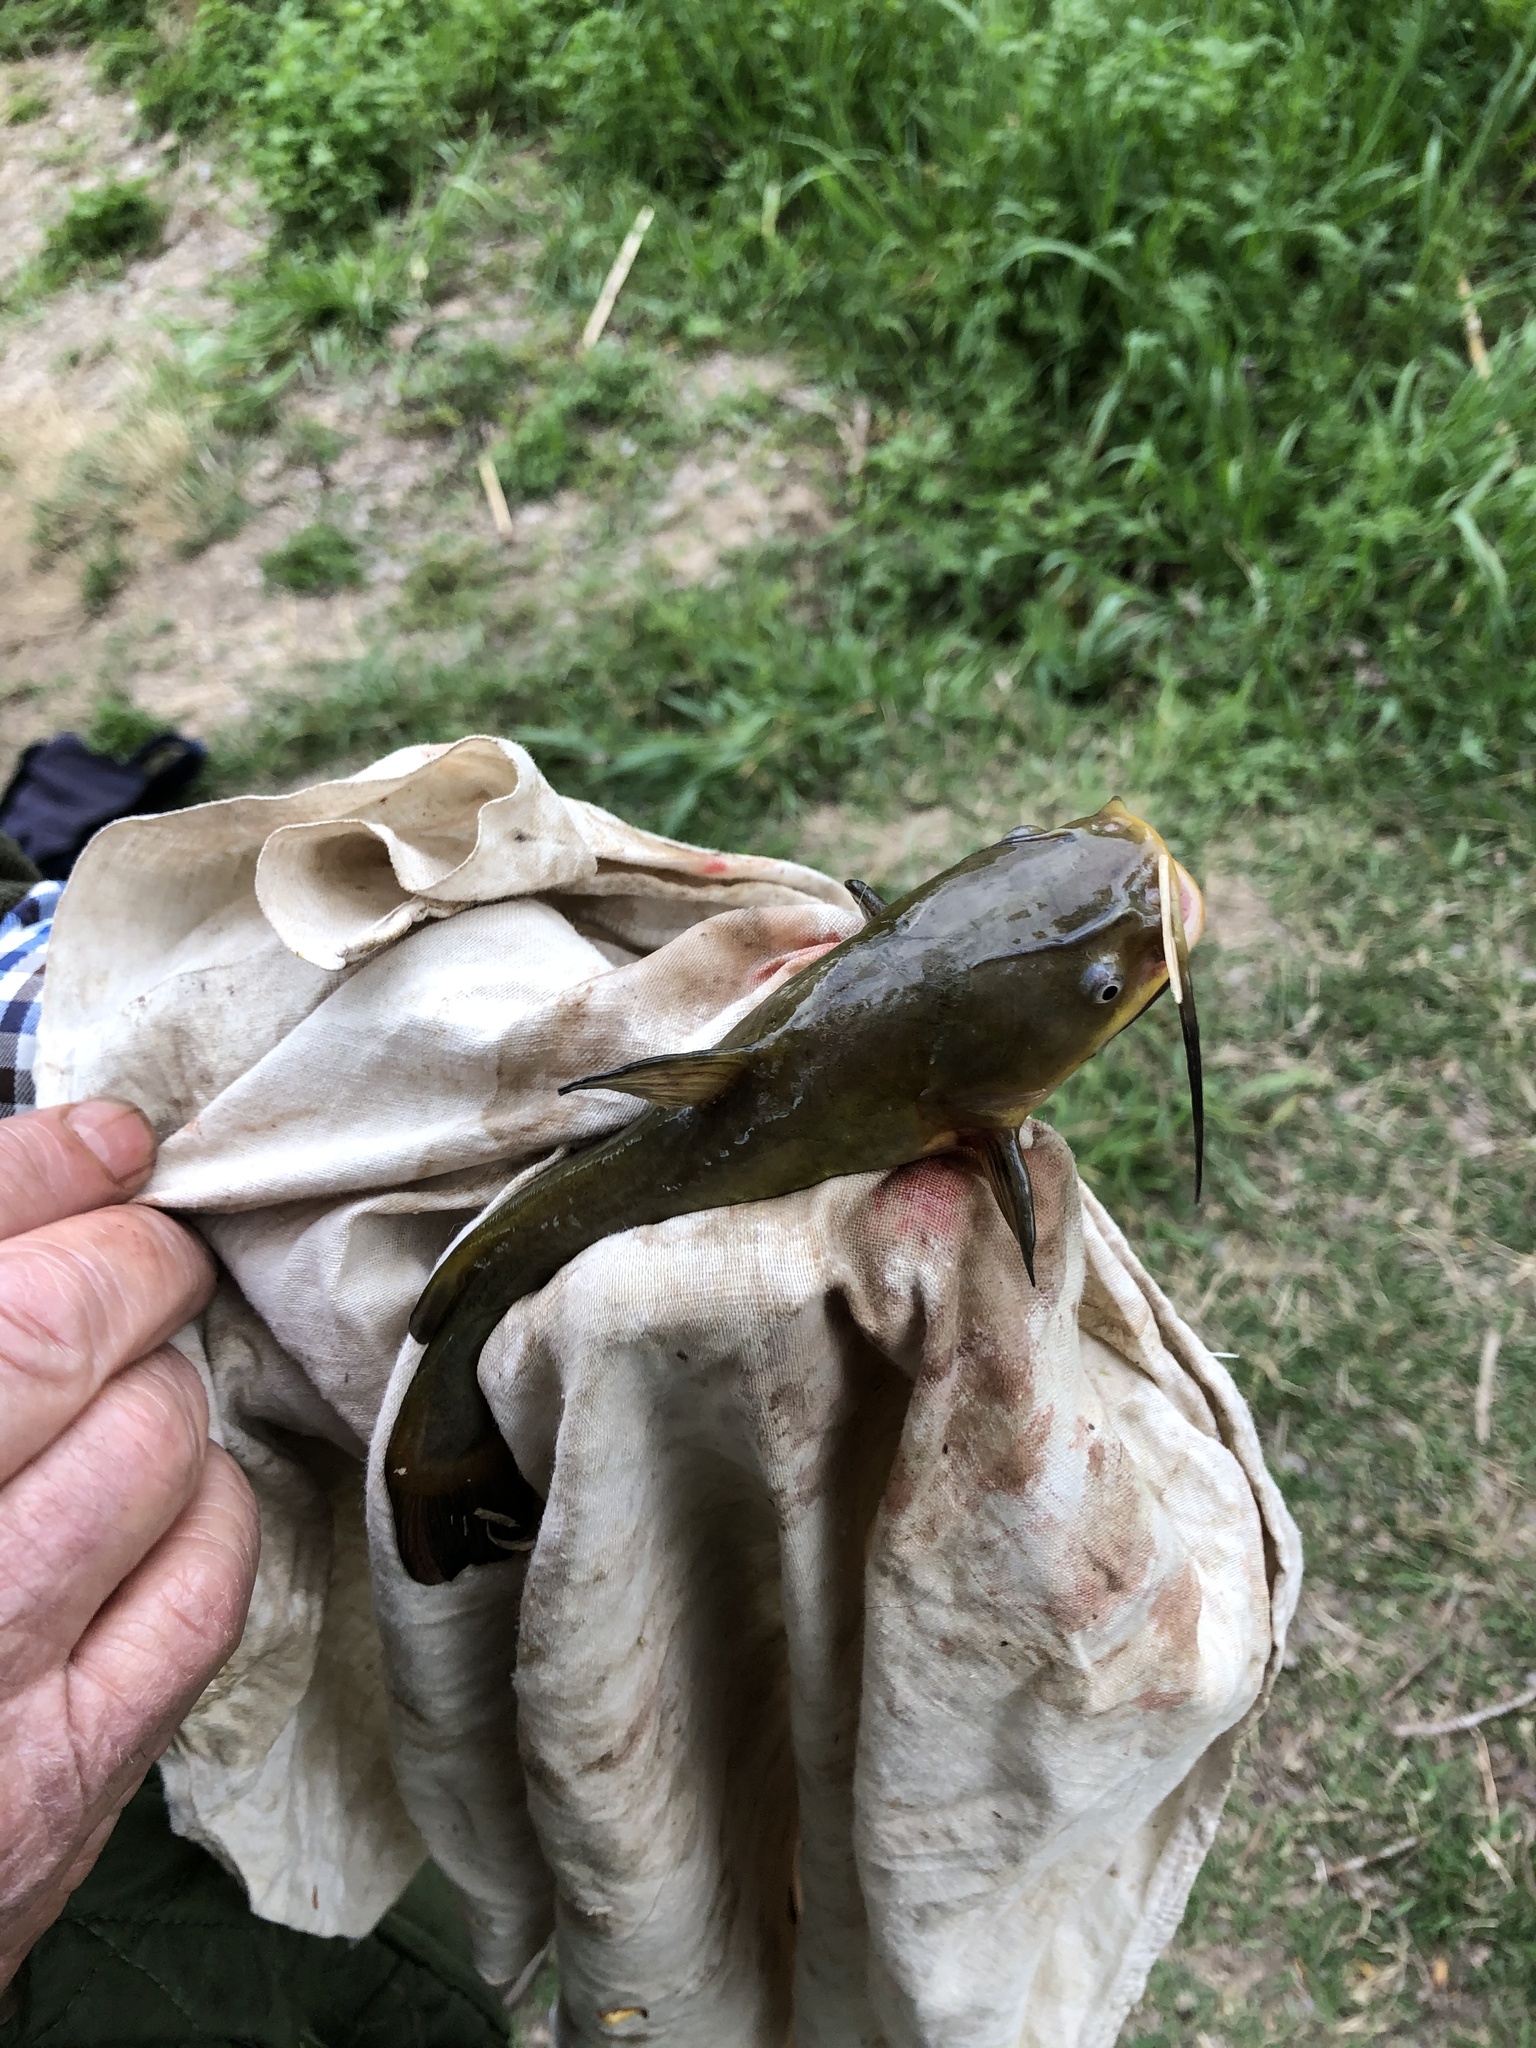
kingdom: Animalia
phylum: Chordata
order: Siluriformes
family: Ictaluridae
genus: Ameiurus
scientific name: Ameiurus melas
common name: Black bullhead
